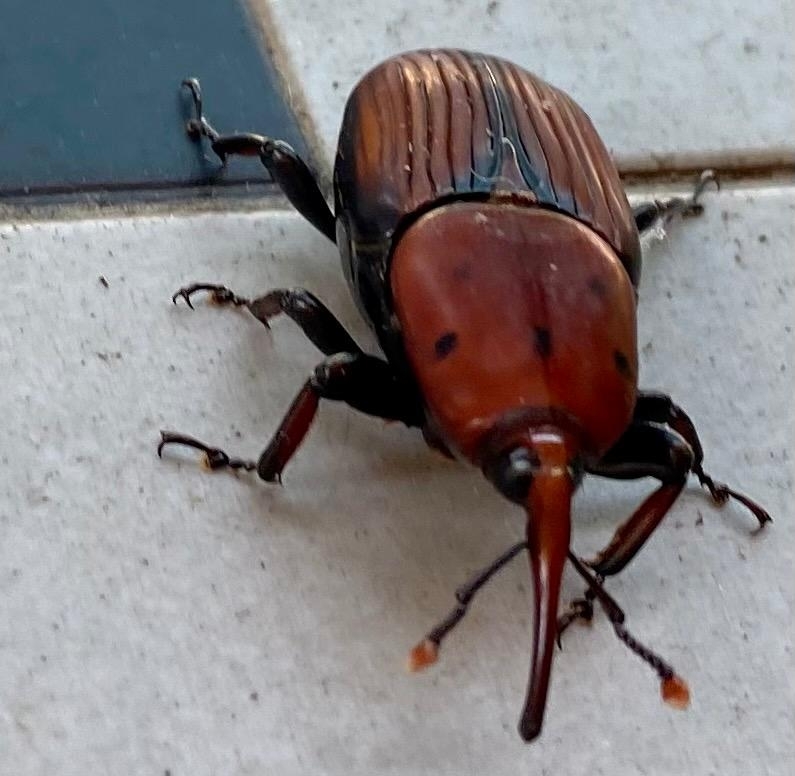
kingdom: Animalia
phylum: Arthropoda
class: Insecta
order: Coleoptera
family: Dryophthoridae
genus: Rhynchophorus
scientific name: Rhynchophorus ferrugineus
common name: Red palm weevil
